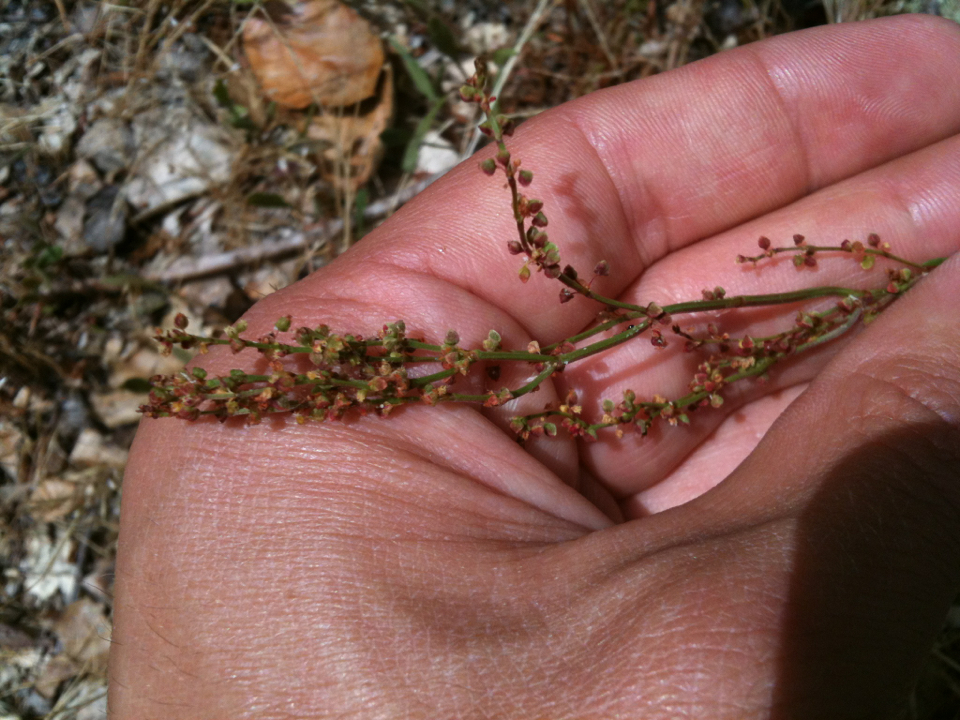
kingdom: Plantae
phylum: Tracheophyta
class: Magnoliopsida
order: Caryophyllales
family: Polygonaceae
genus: Rumex
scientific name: Rumex acetosella
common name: Common sheep sorrel
